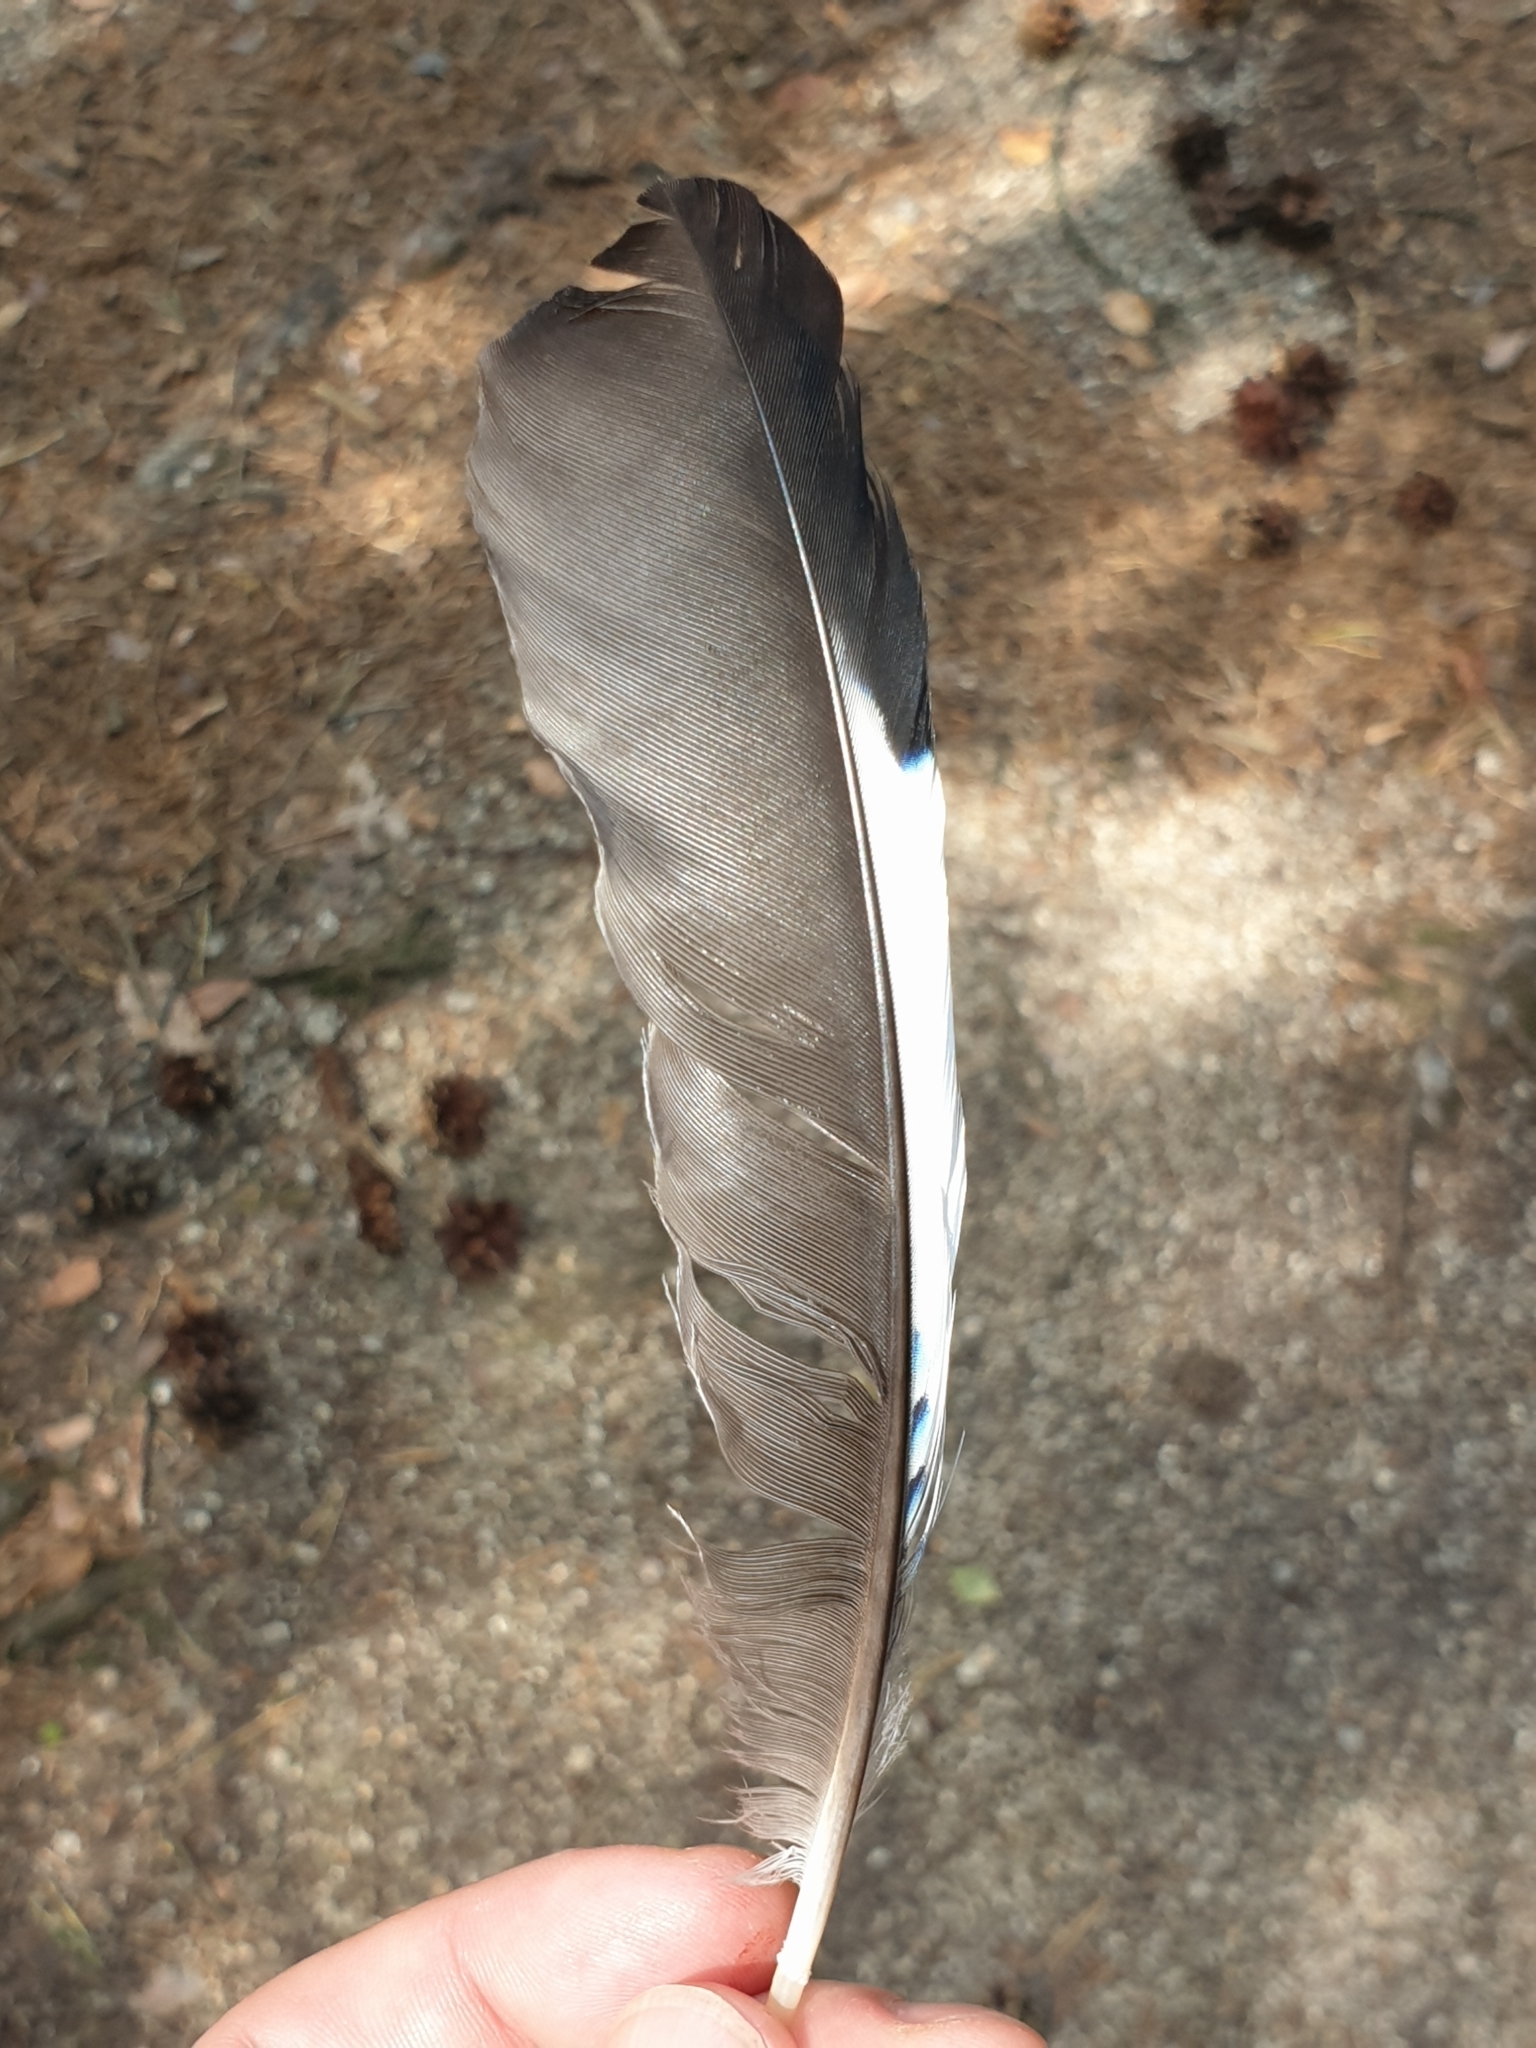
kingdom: Animalia
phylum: Chordata
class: Aves
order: Passeriformes
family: Corvidae
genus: Garrulus
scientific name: Garrulus glandarius
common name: Eurasian jay
